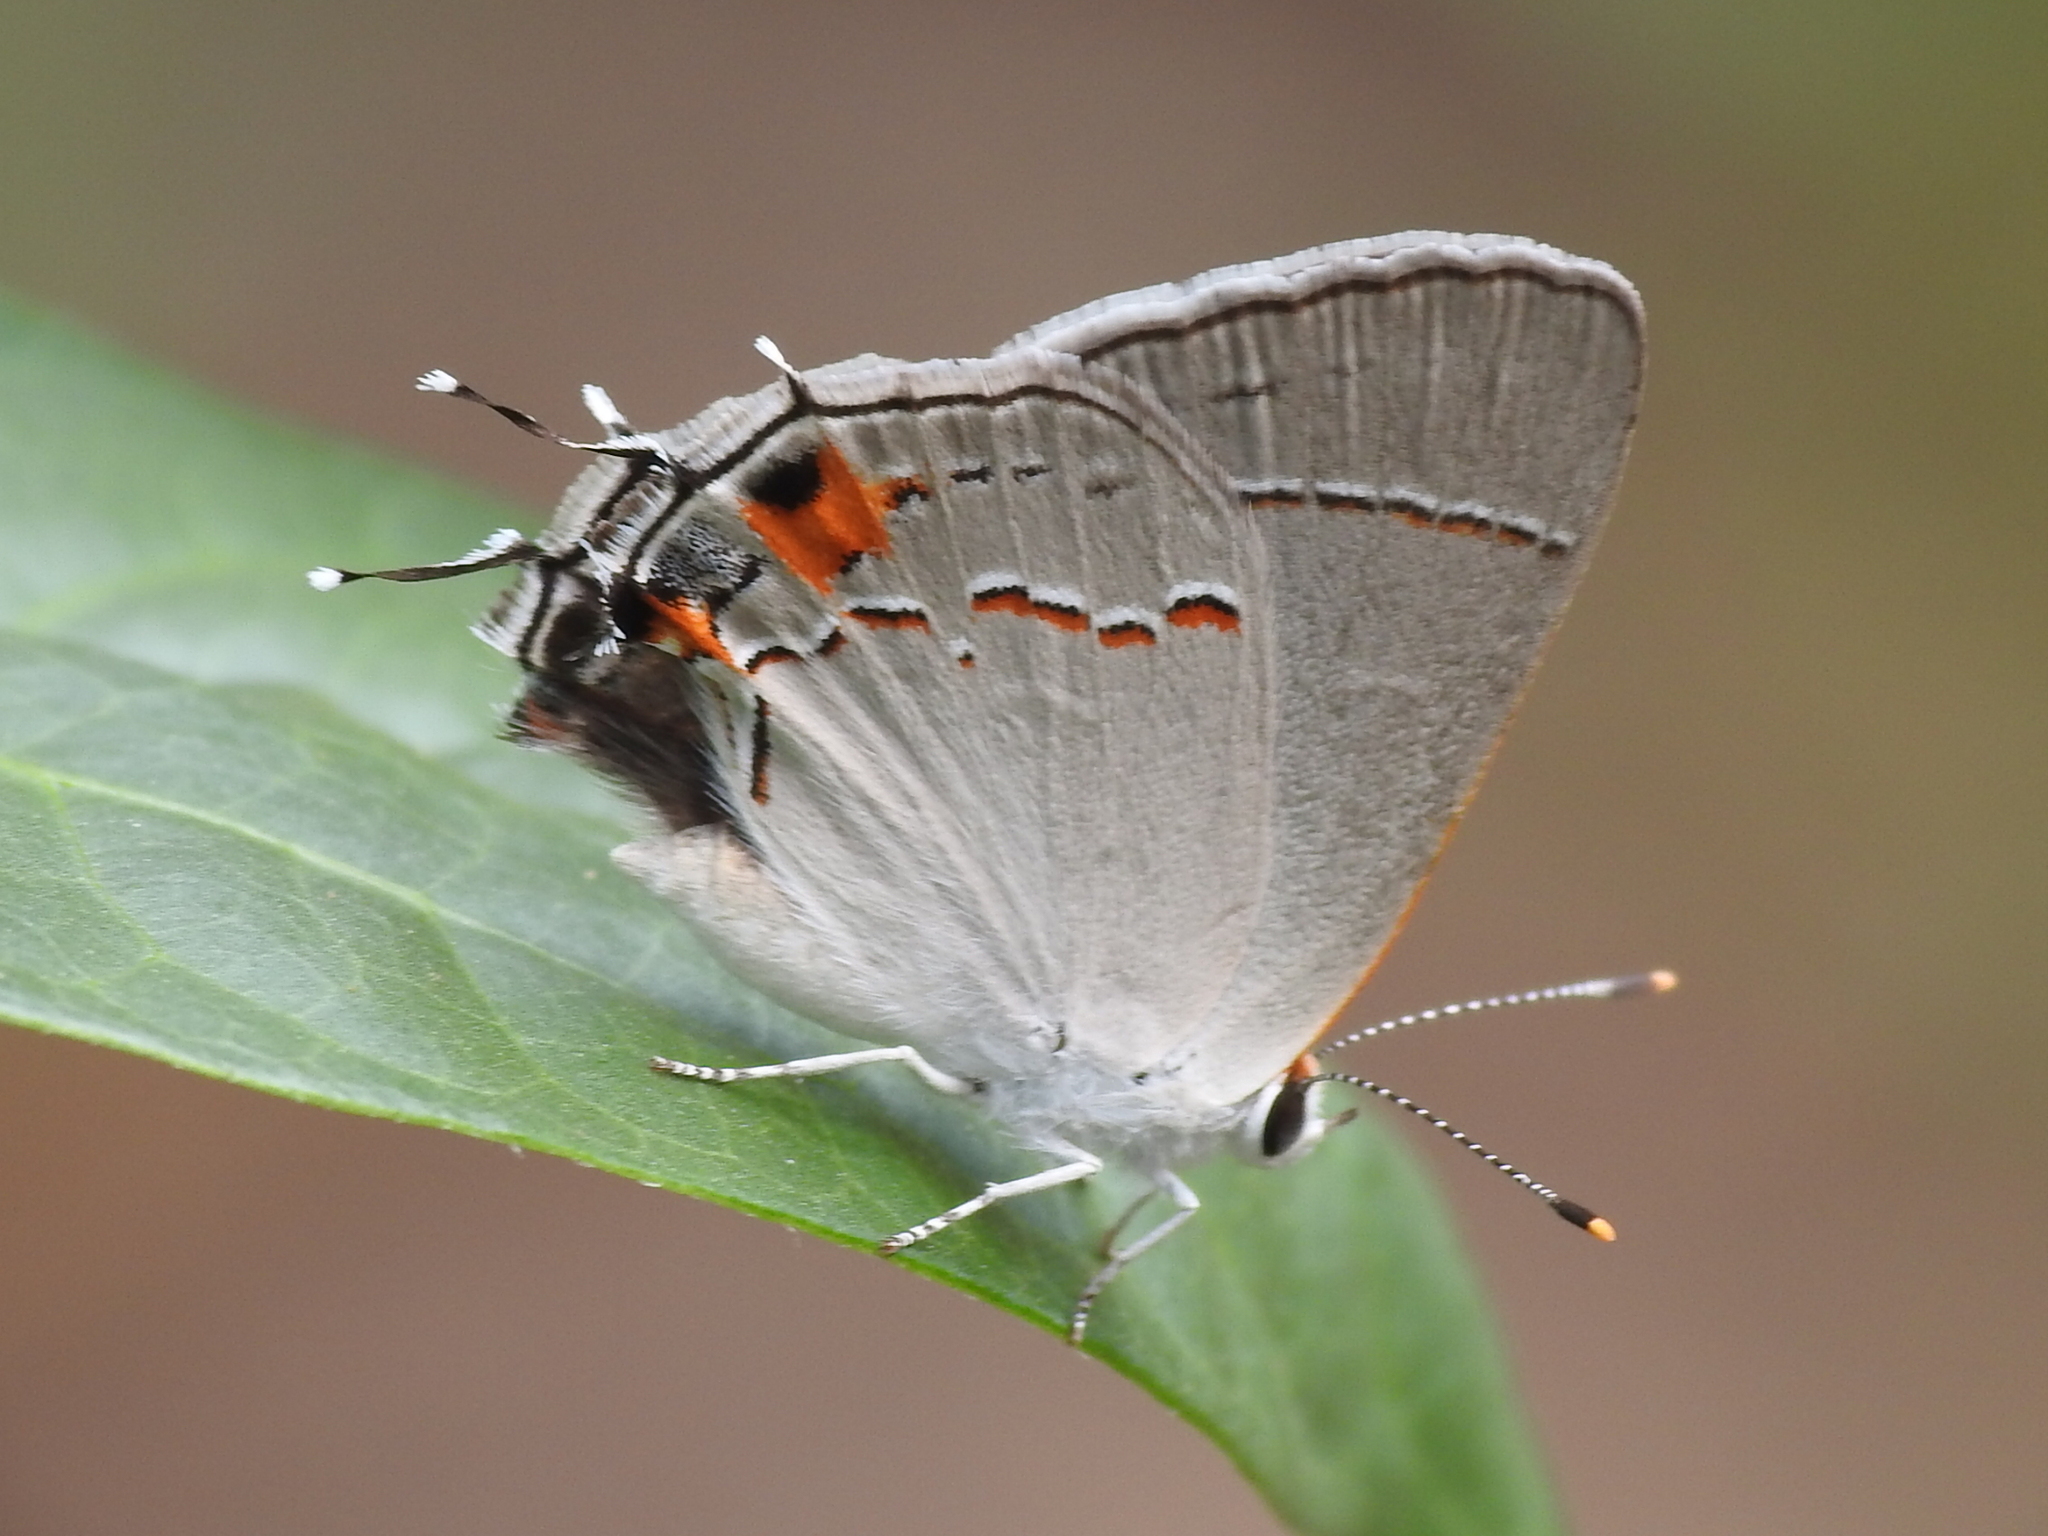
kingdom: Animalia
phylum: Arthropoda
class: Insecta
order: Lepidoptera
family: Lycaenidae
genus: Strymon
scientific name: Strymon melinus
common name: Gray hairstreak
